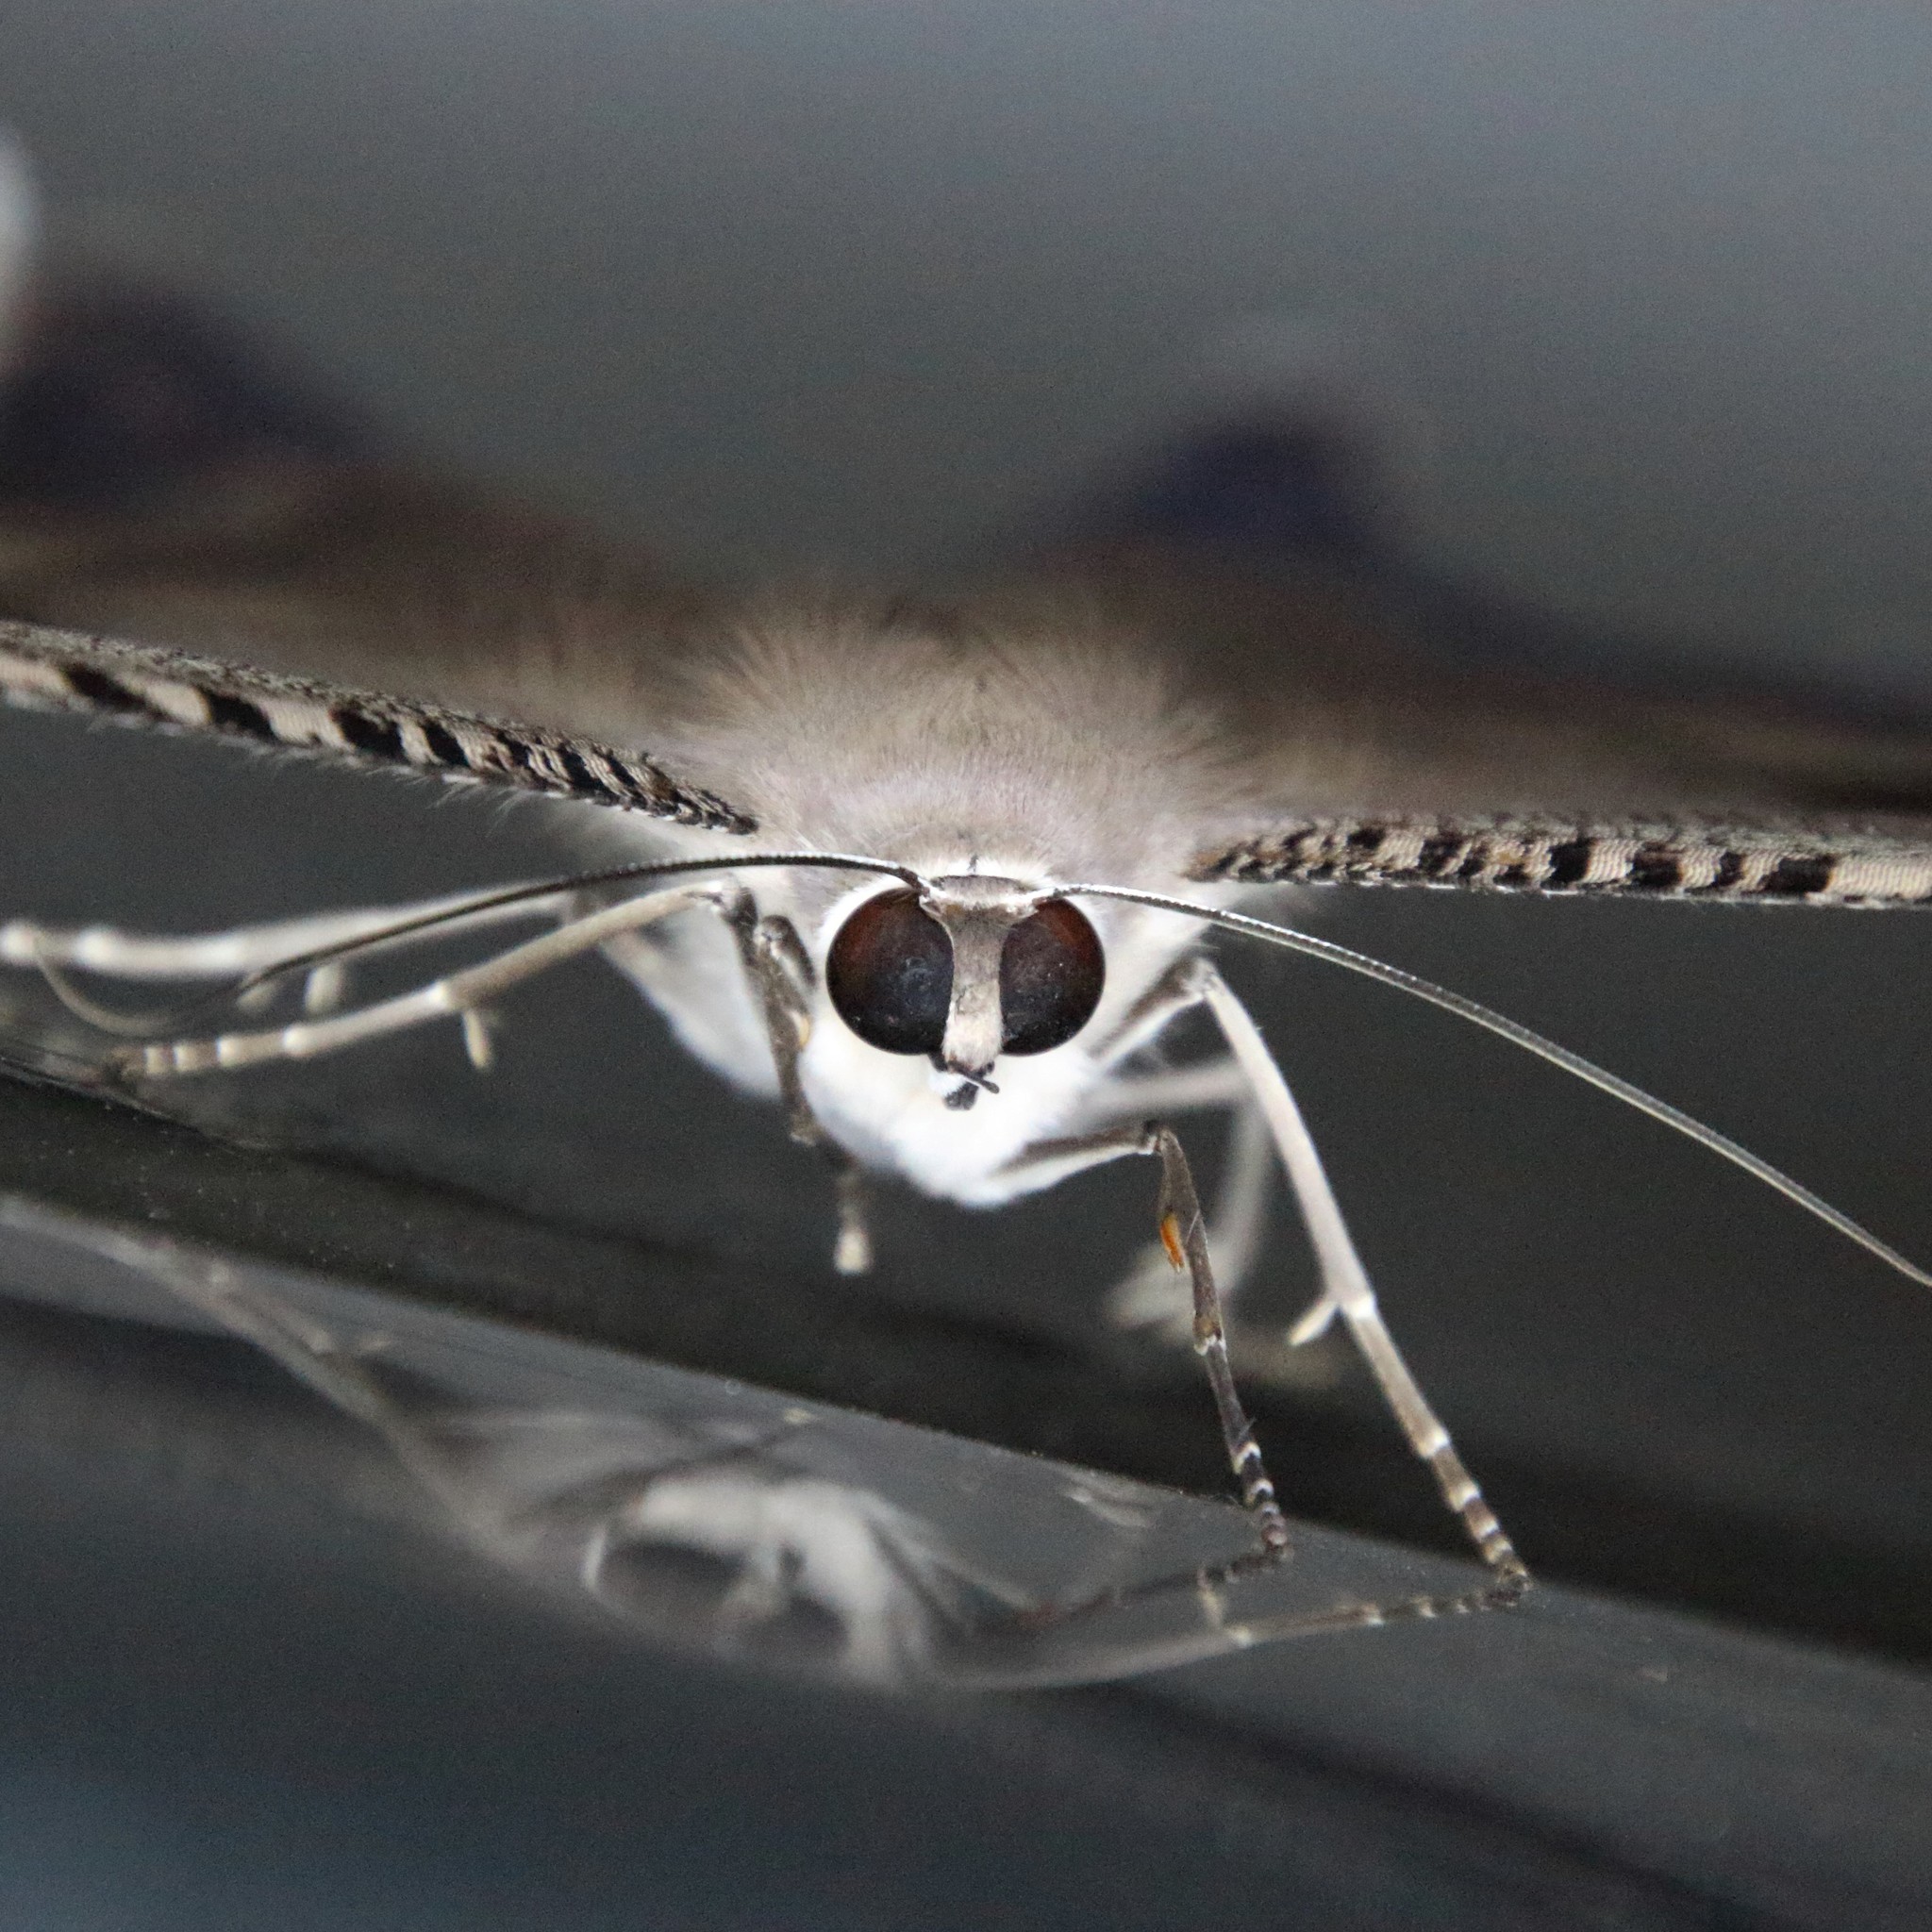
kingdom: Animalia
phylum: Arthropoda
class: Insecta
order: Lepidoptera
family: Uraniidae
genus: Lyssa
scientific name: Lyssa zampa
